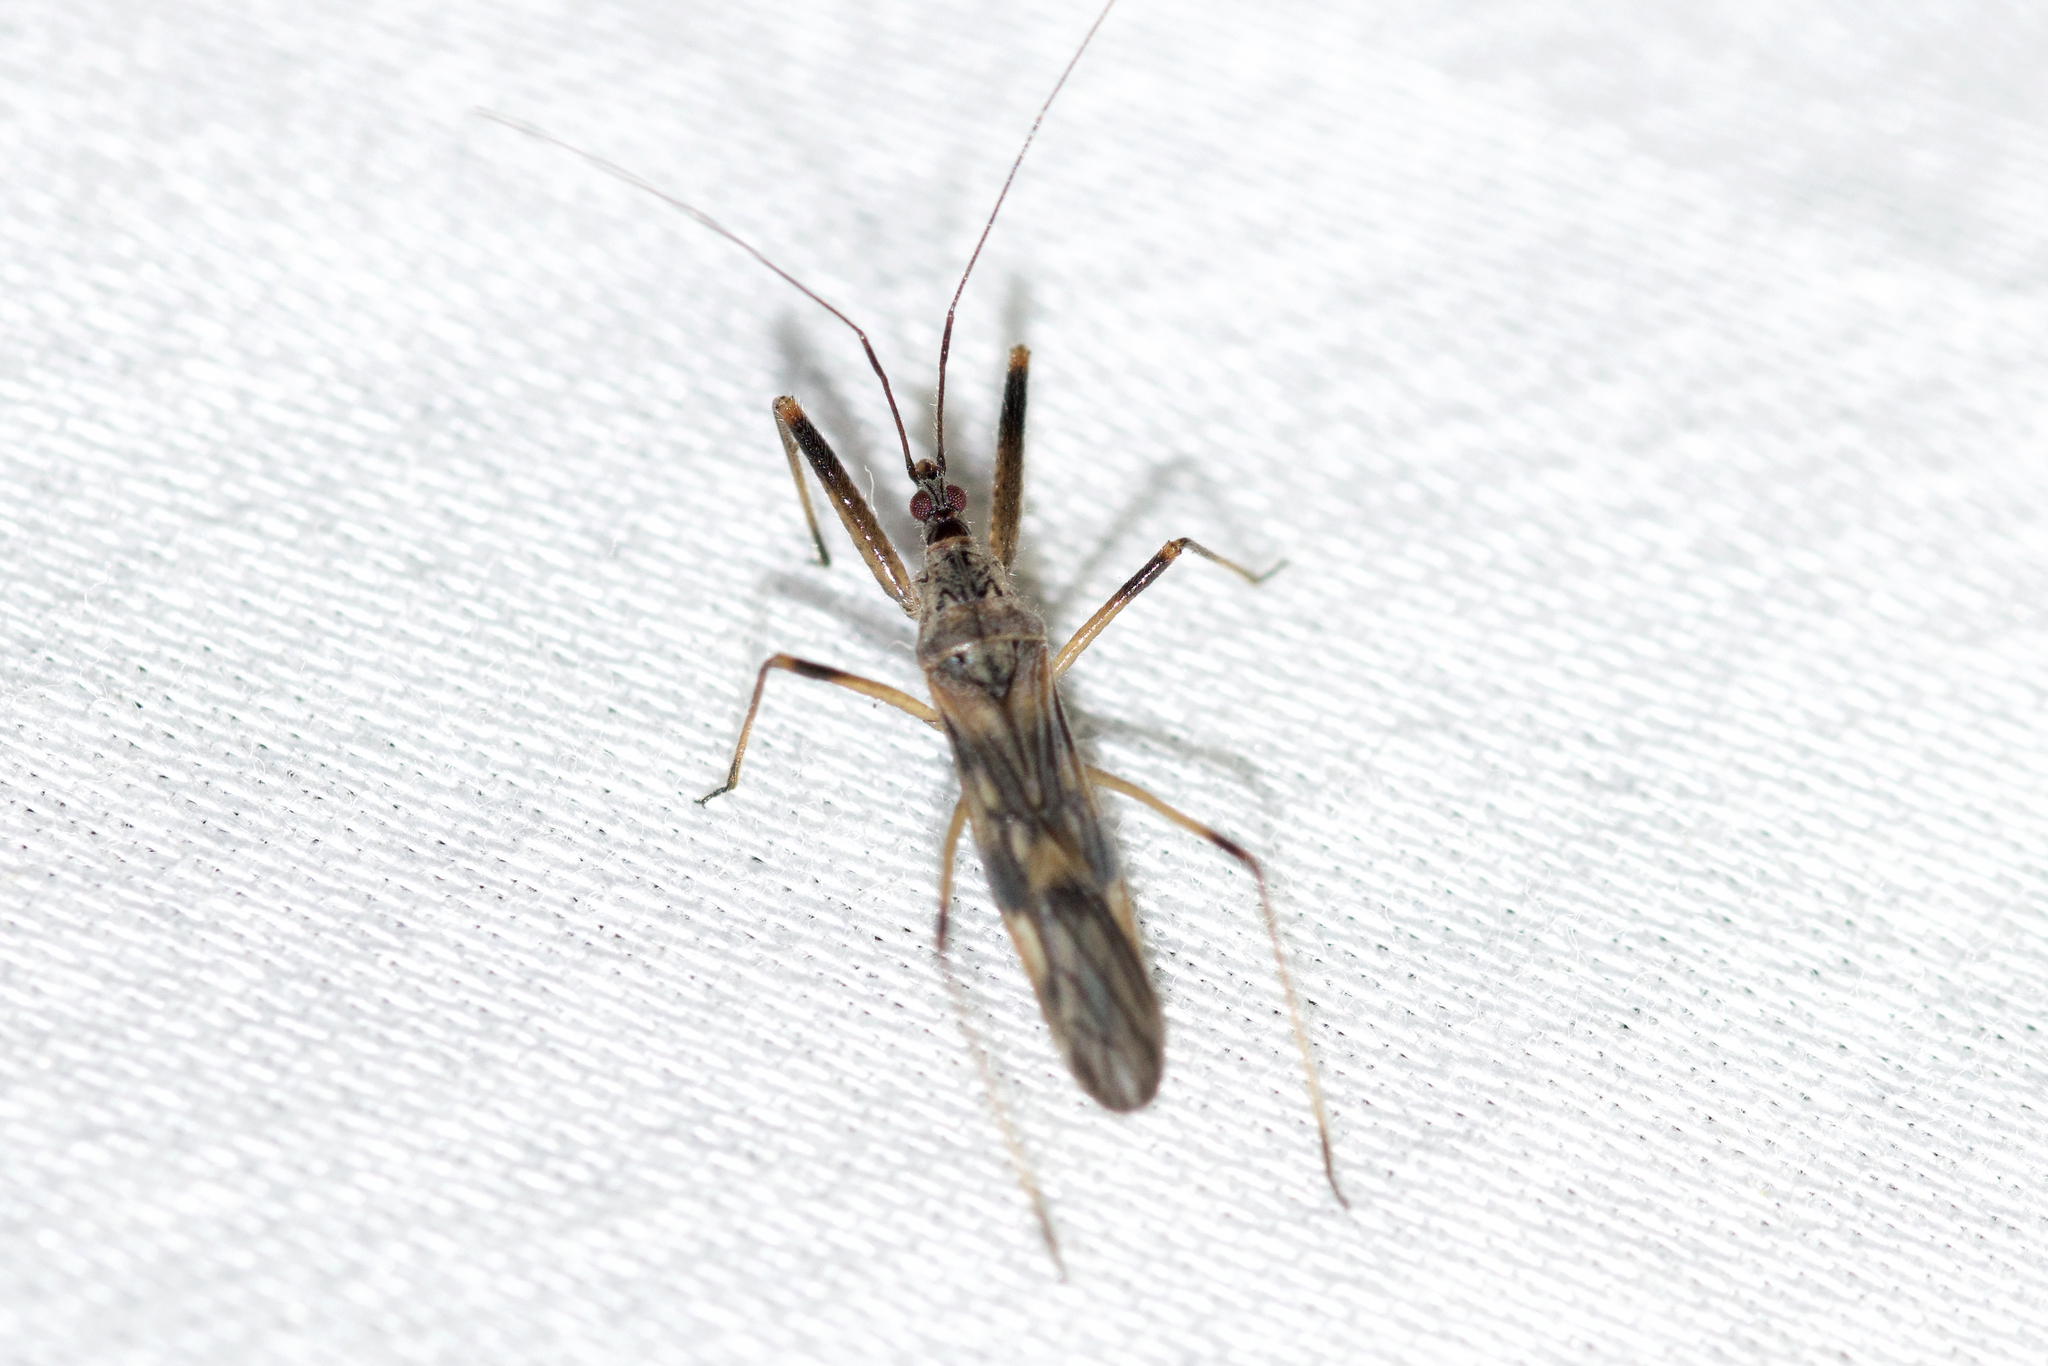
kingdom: Animalia
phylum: Arthropoda
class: Insecta
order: Hemiptera
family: Nabidae
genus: Metatropiphorus
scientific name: Metatropiphorus belfragii
